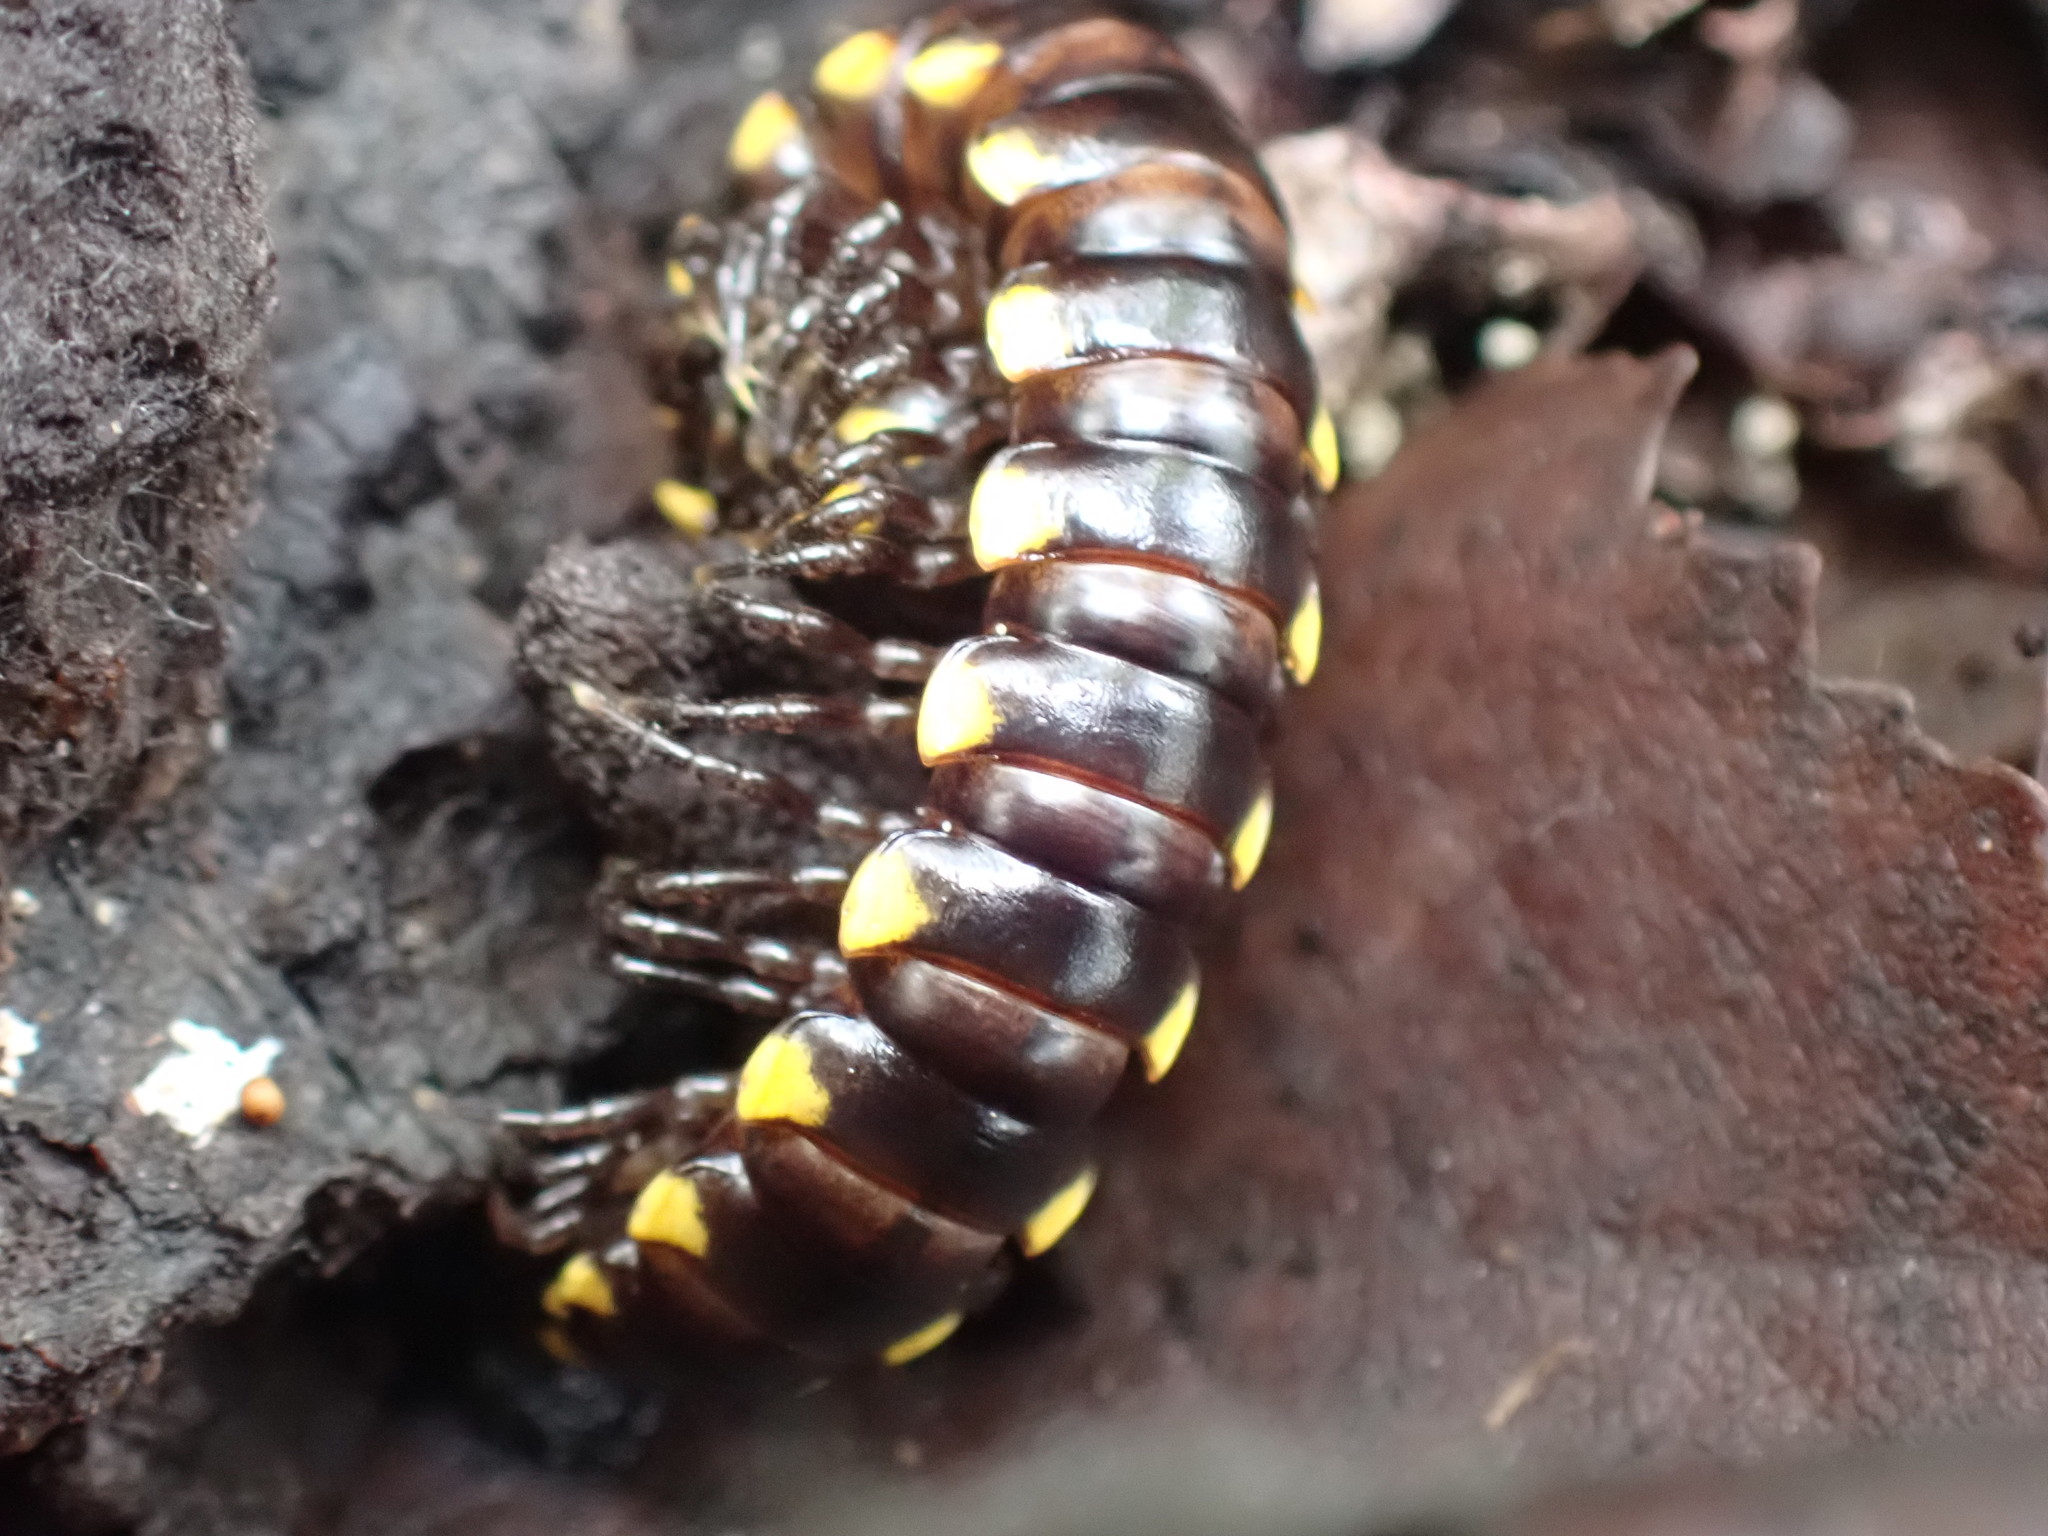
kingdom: Animalia
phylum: Arthropoda
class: Diplopoda
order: Polydesmida
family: Xystodesmidae
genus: Harpaphe
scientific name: Harpaphe haydeniana
